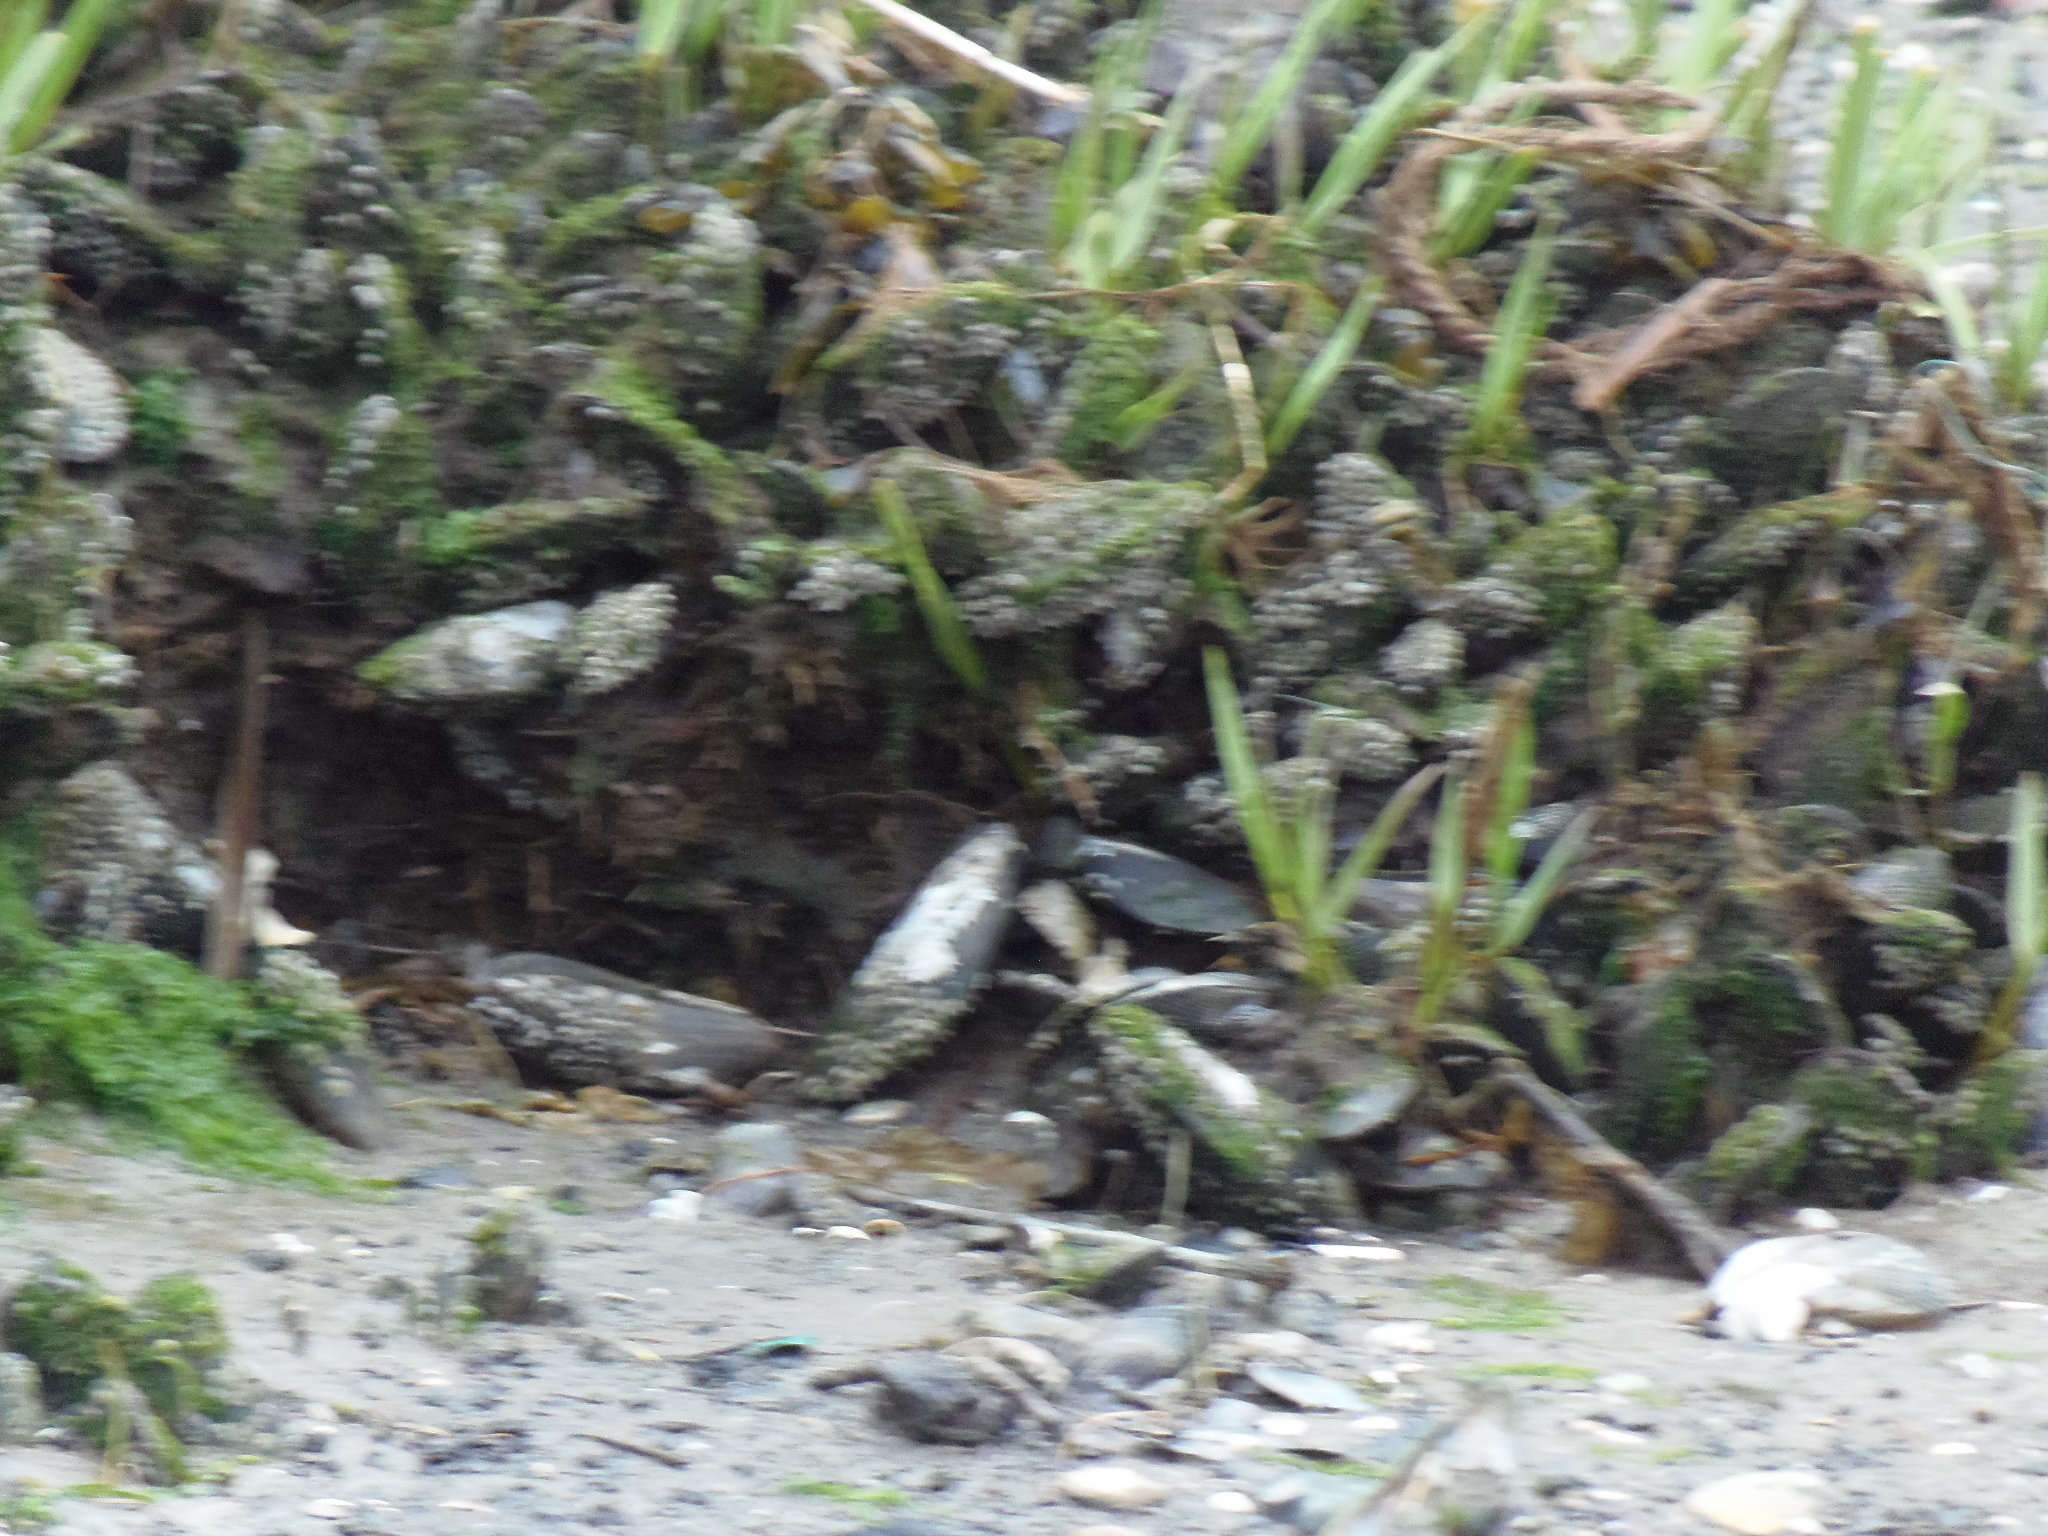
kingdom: Animalia
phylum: Mollusca
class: Bivalvia
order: Mytilida
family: Mytilidae
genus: Geukensia
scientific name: Geukensia demissa
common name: Ribbed mussel
